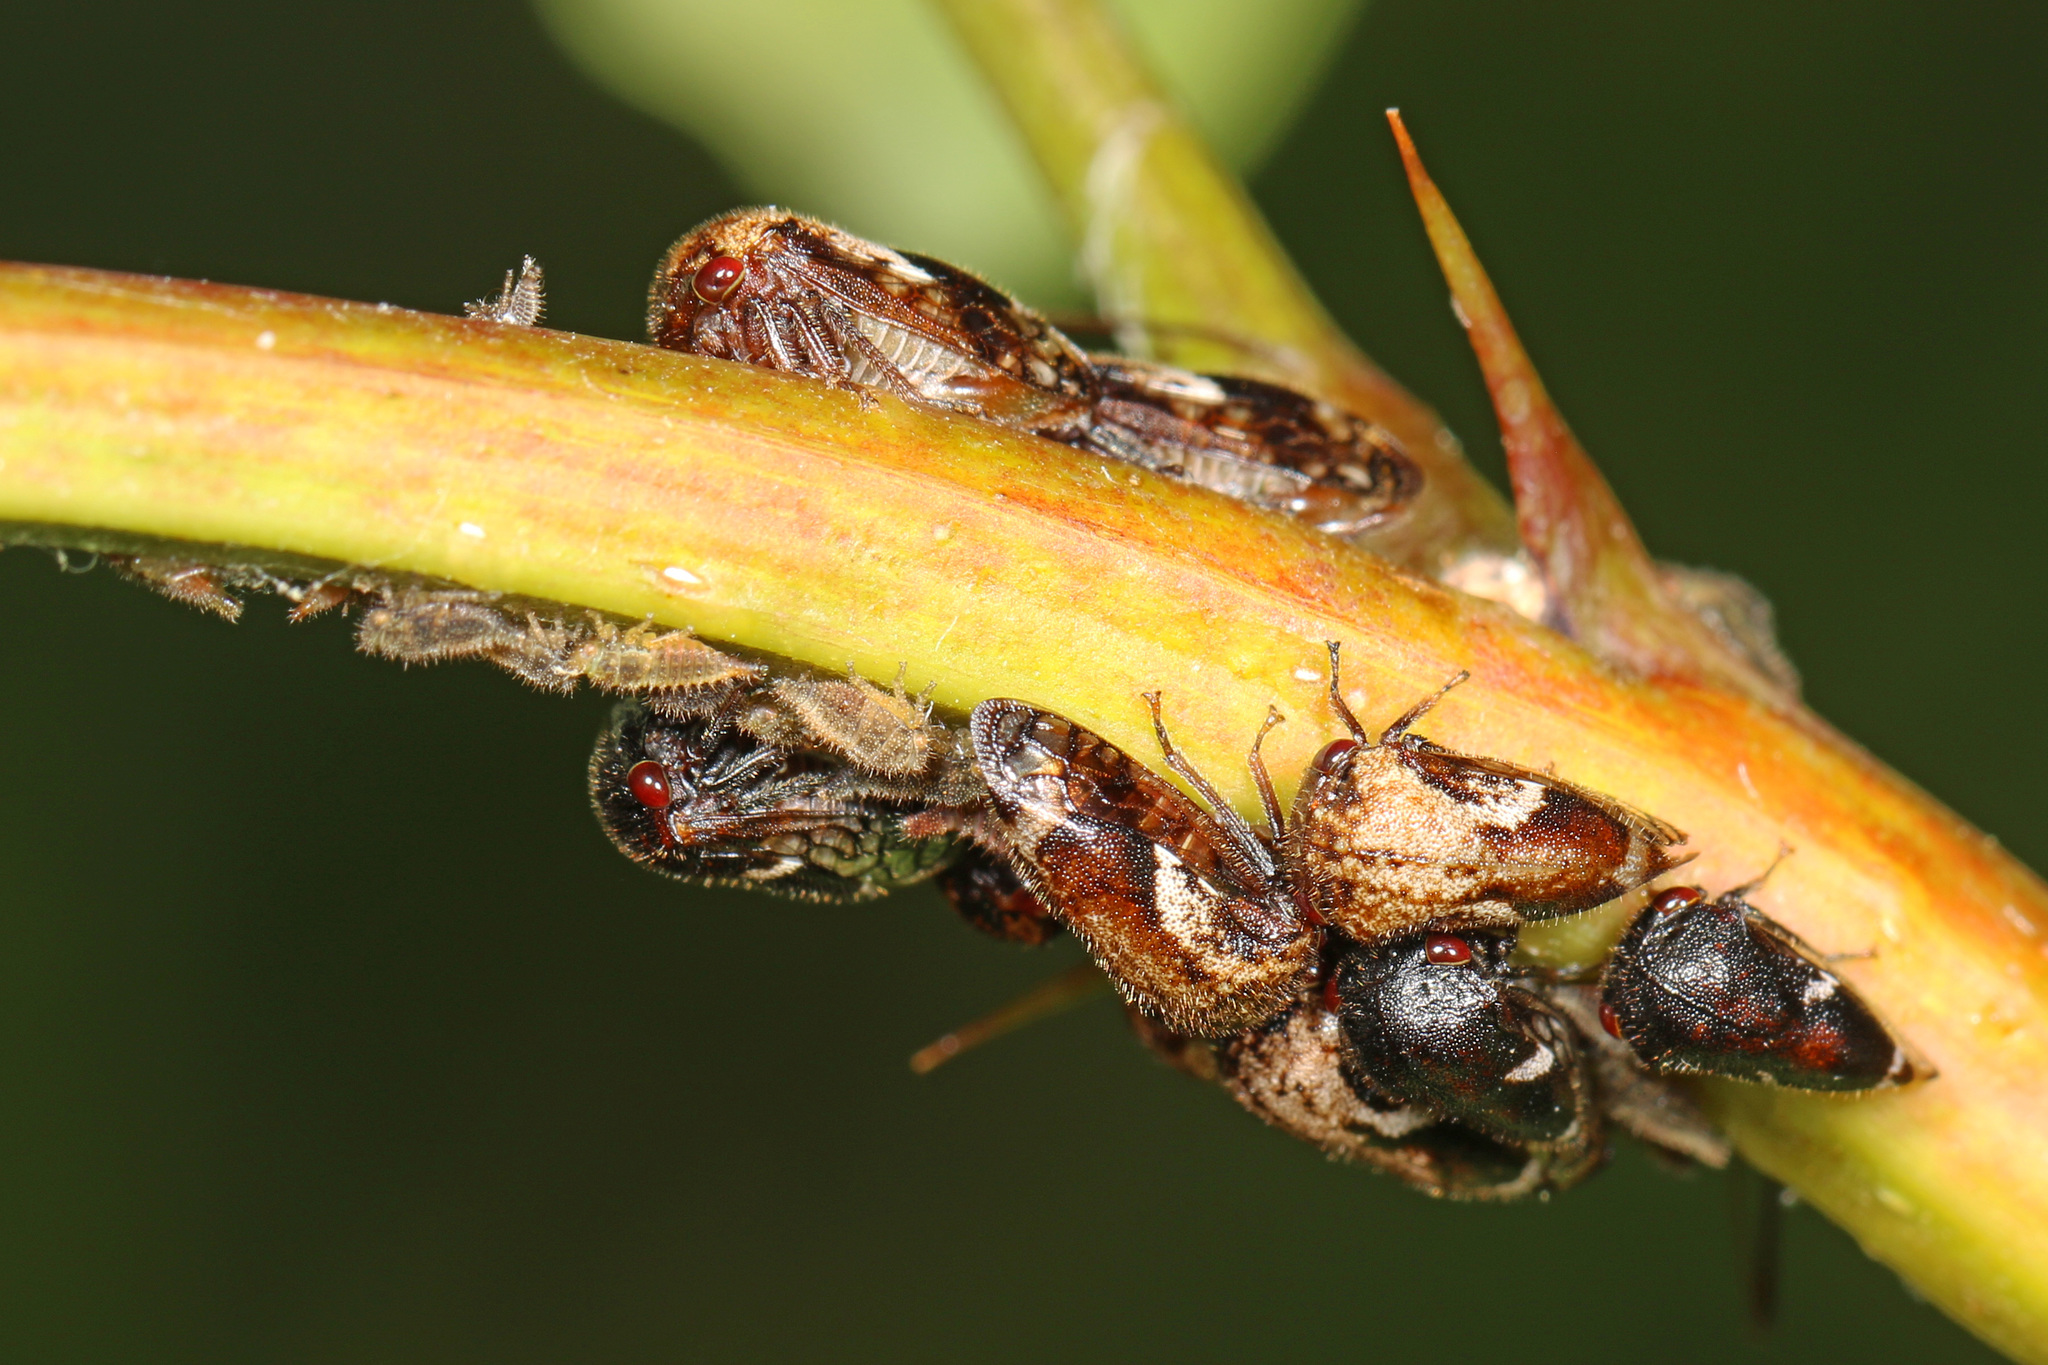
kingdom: Animalia
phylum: Arthropoda
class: Insecta
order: Hemiptera
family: Membracidae
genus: Vanduzea
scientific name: Vanduzea arquata
